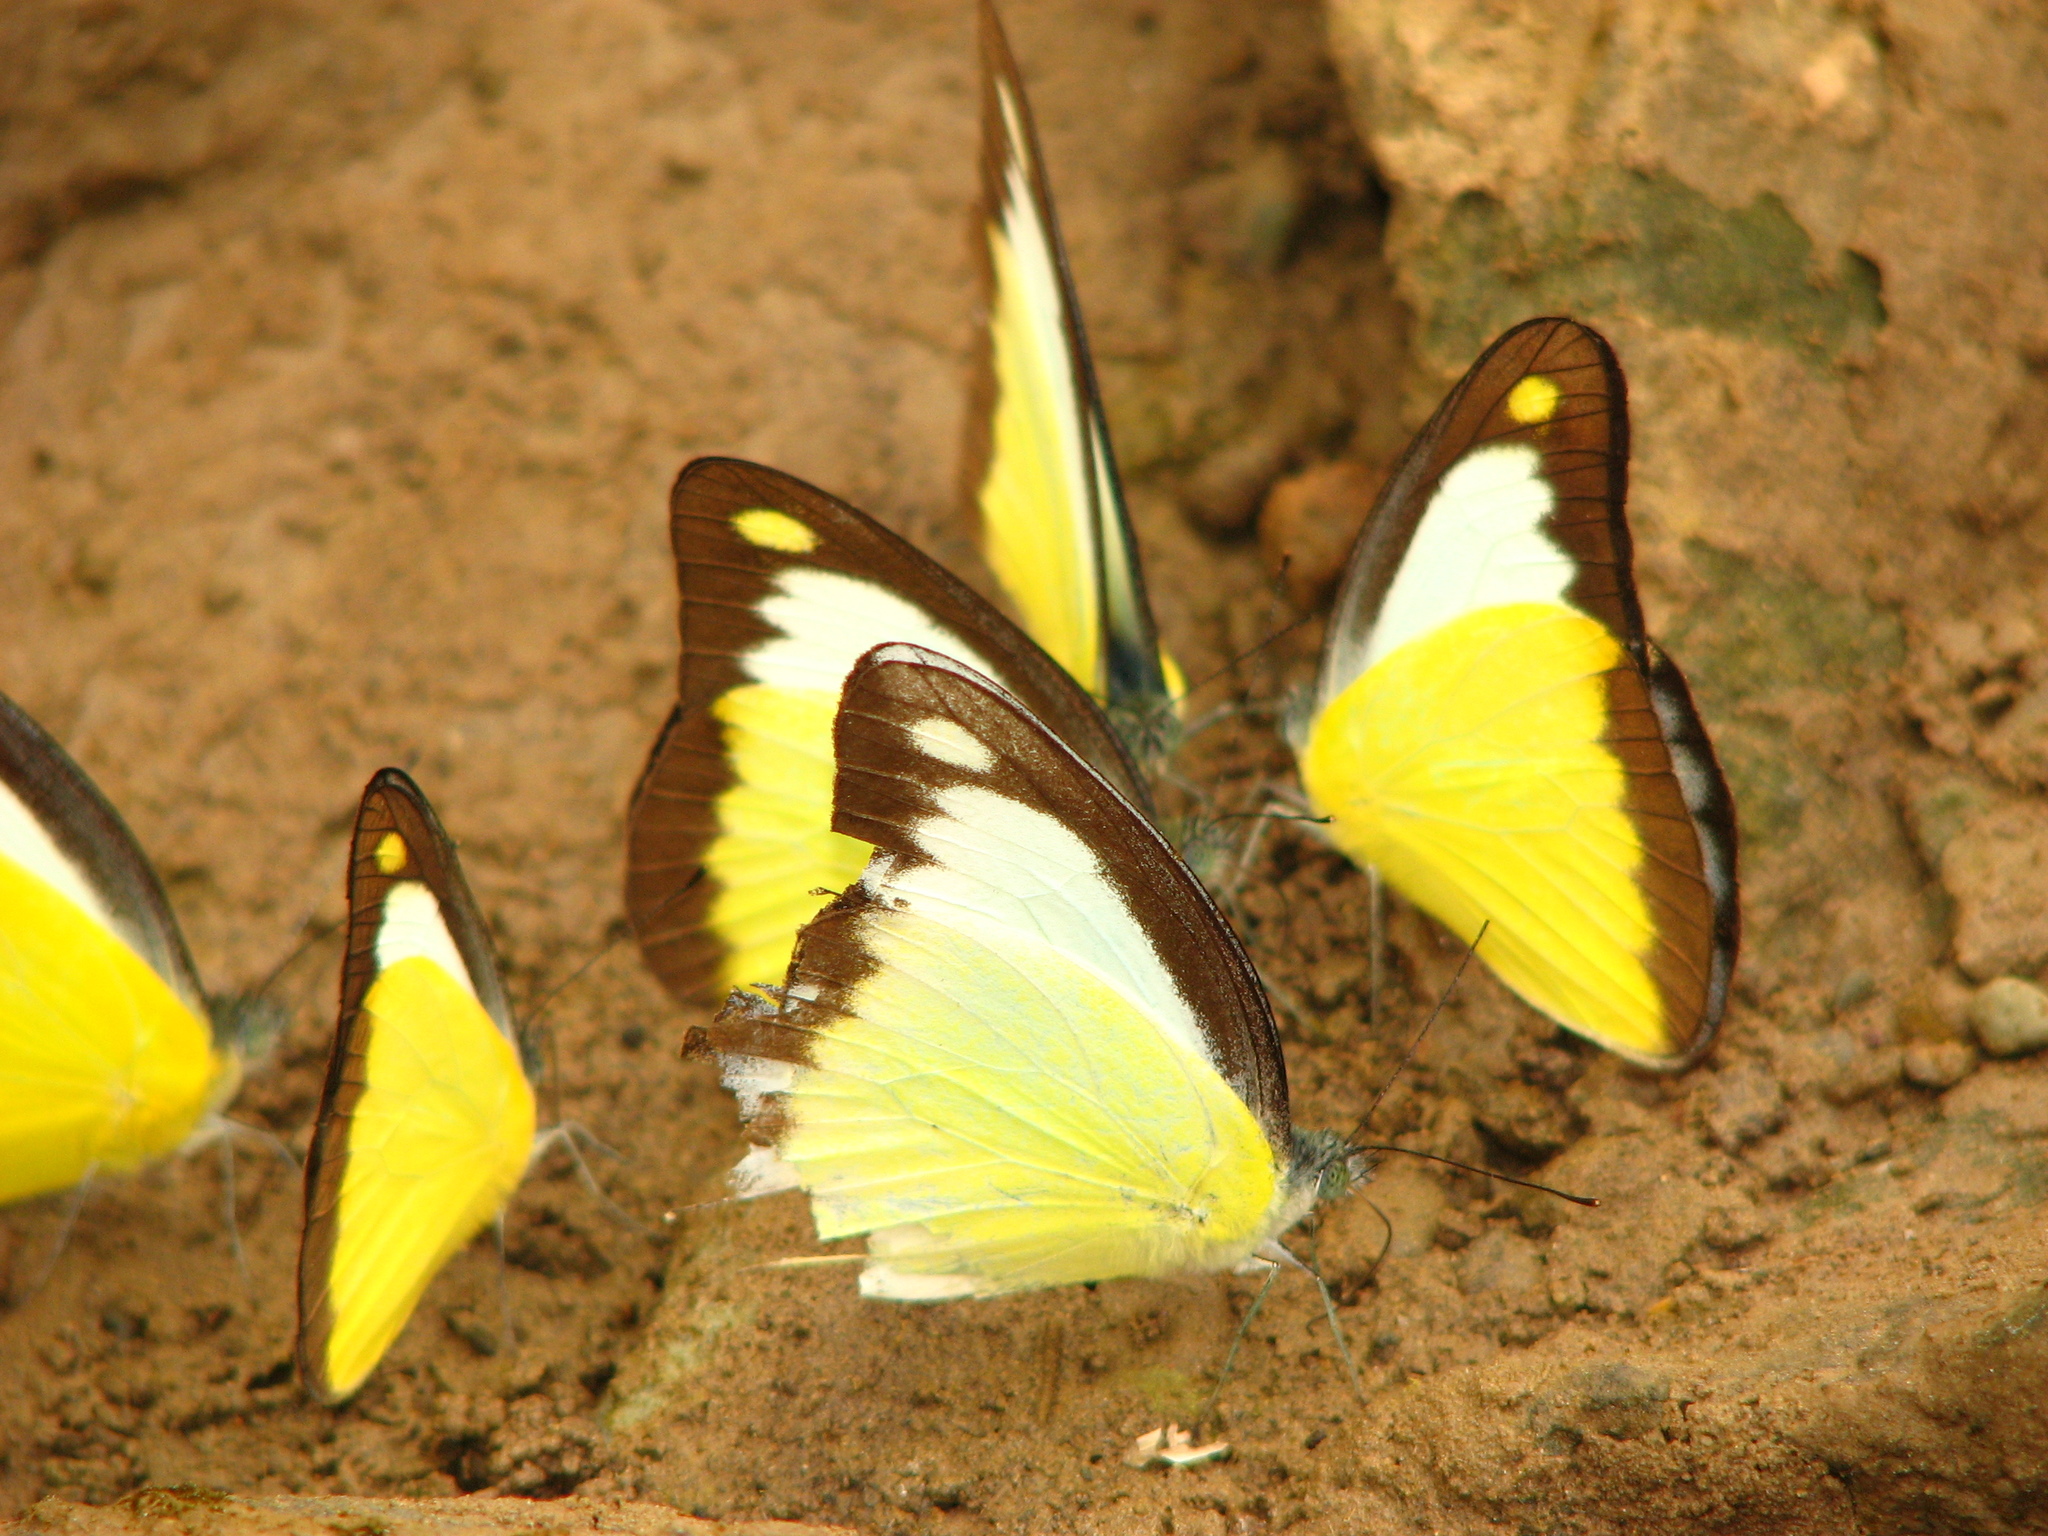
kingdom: Animalia
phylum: Arthropoda
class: Insecta
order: Lepidoptera
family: Pieridae
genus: Appias
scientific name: Appias lyncida
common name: Chocolate albatross
